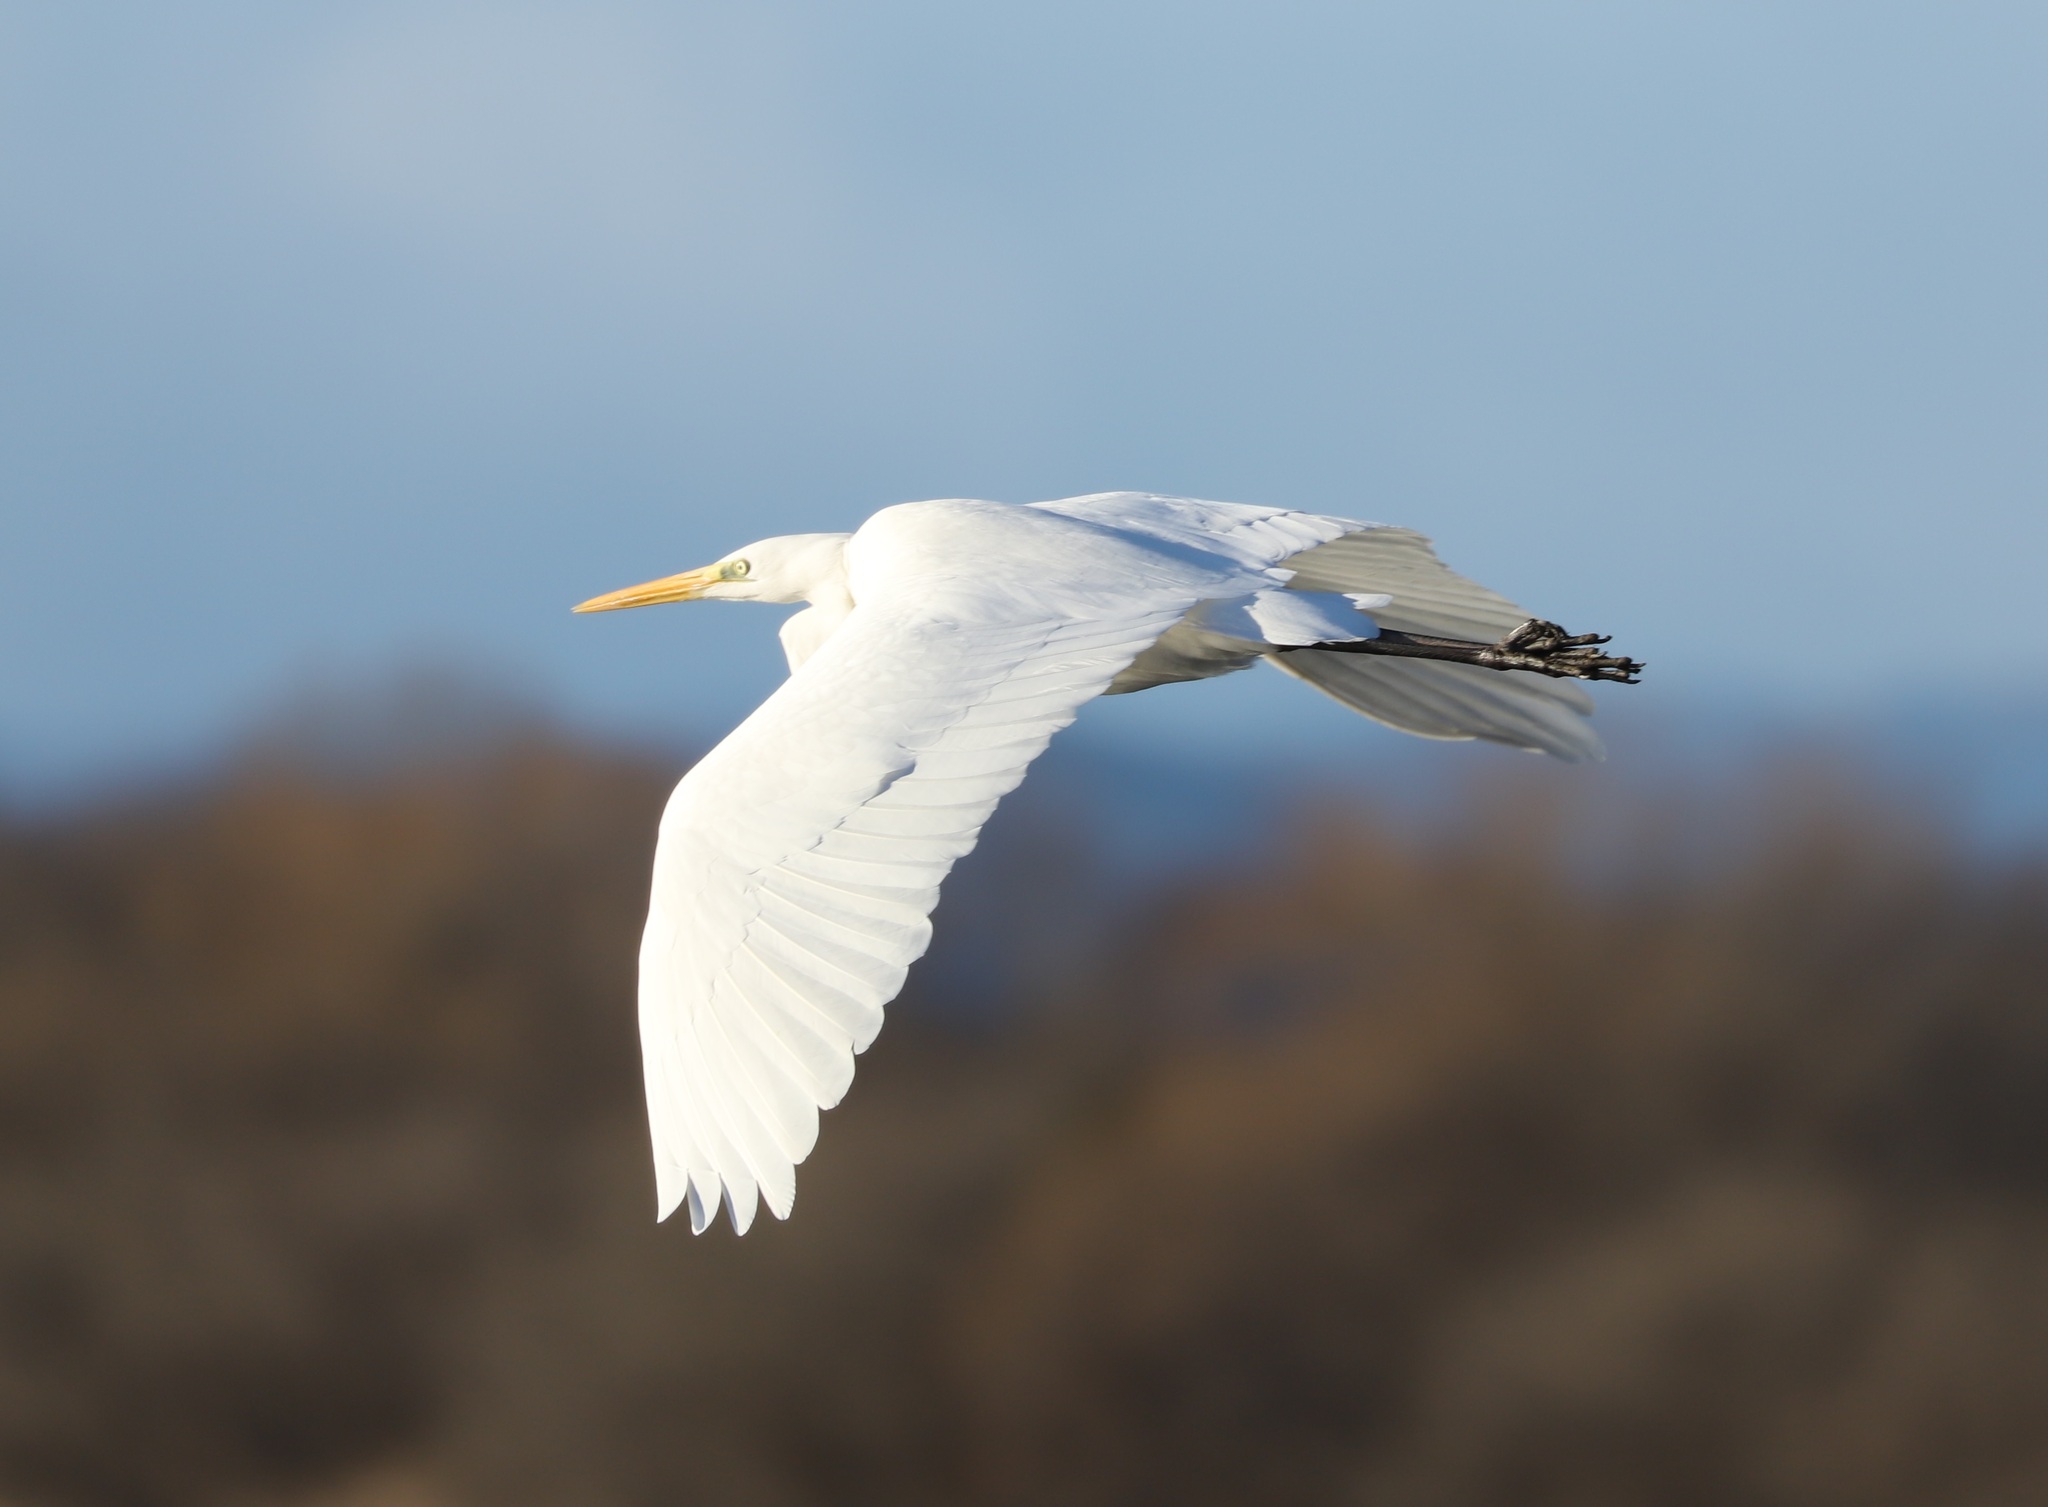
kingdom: Animalia
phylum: Chordata
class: Aves
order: Pelecaniformes
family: Ardeidae
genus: Ardea
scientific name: Ardea alba
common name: Great egret
